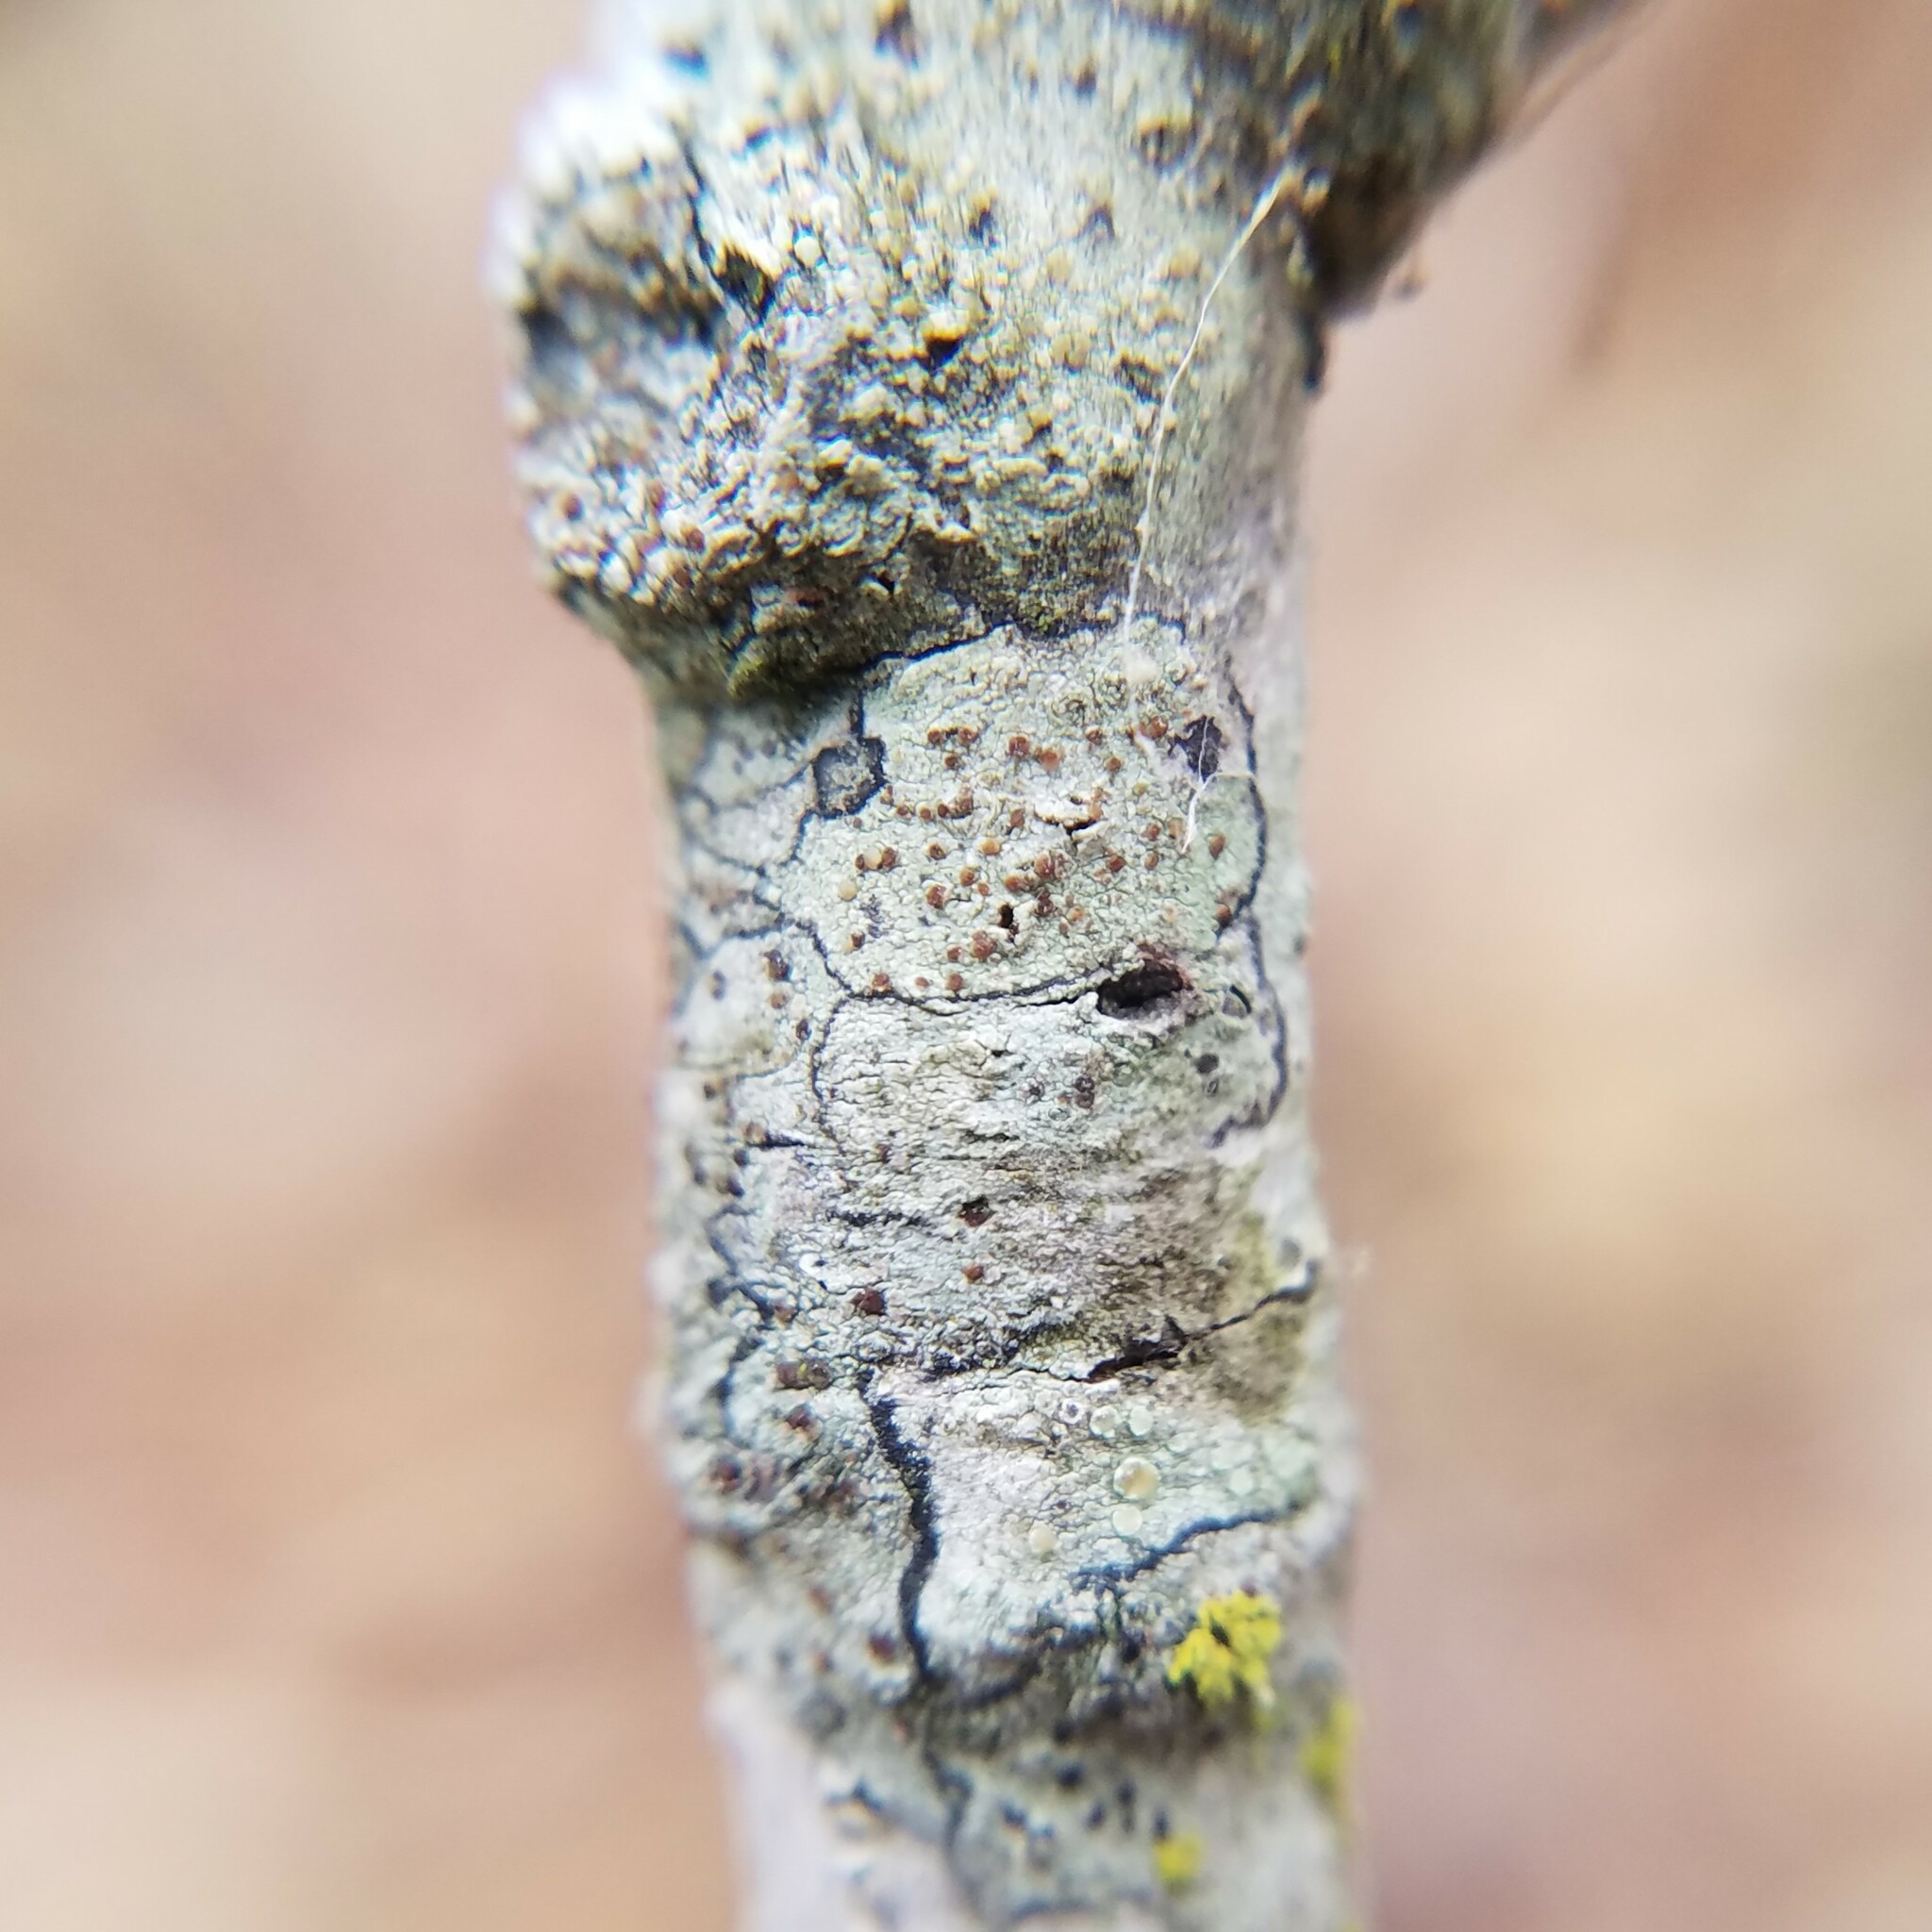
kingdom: Fungi
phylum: Ascomycota
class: Lecanoromycetes
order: Lecanorales
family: Lecanoraceae
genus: Traponora
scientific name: Traponora varians
